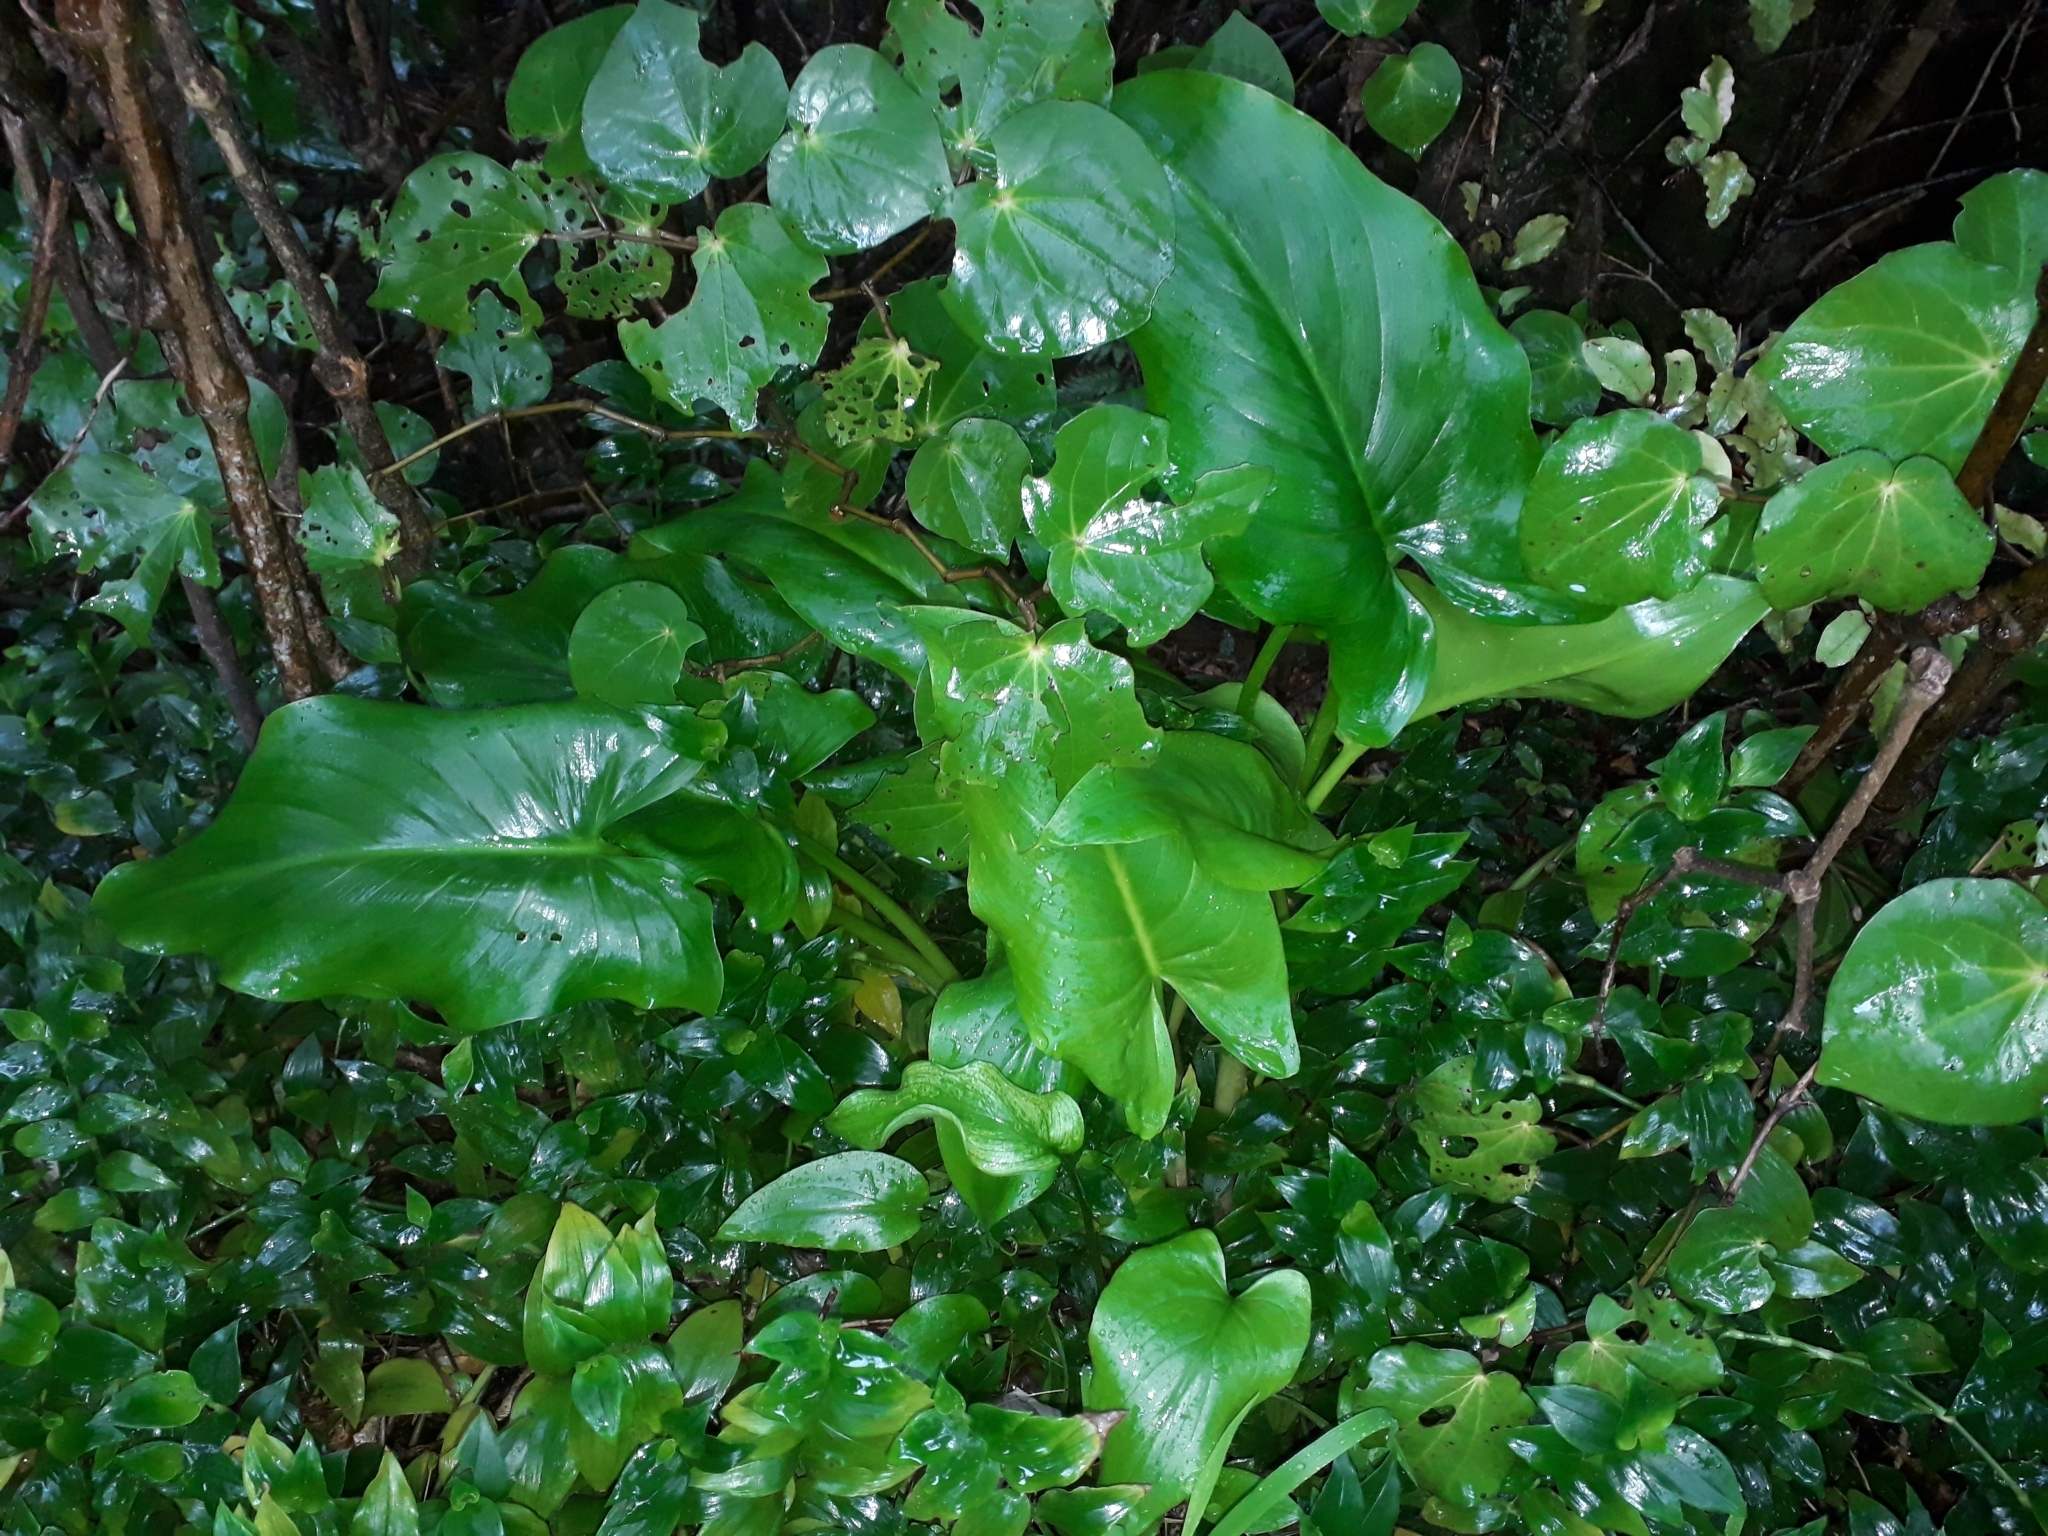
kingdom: Plantae
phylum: Tracheophyta
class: Liliopsida
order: Alismatales
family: Araceae
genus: Zantedeschia
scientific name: Zantedeschia aethiopica
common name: Altar-lily
